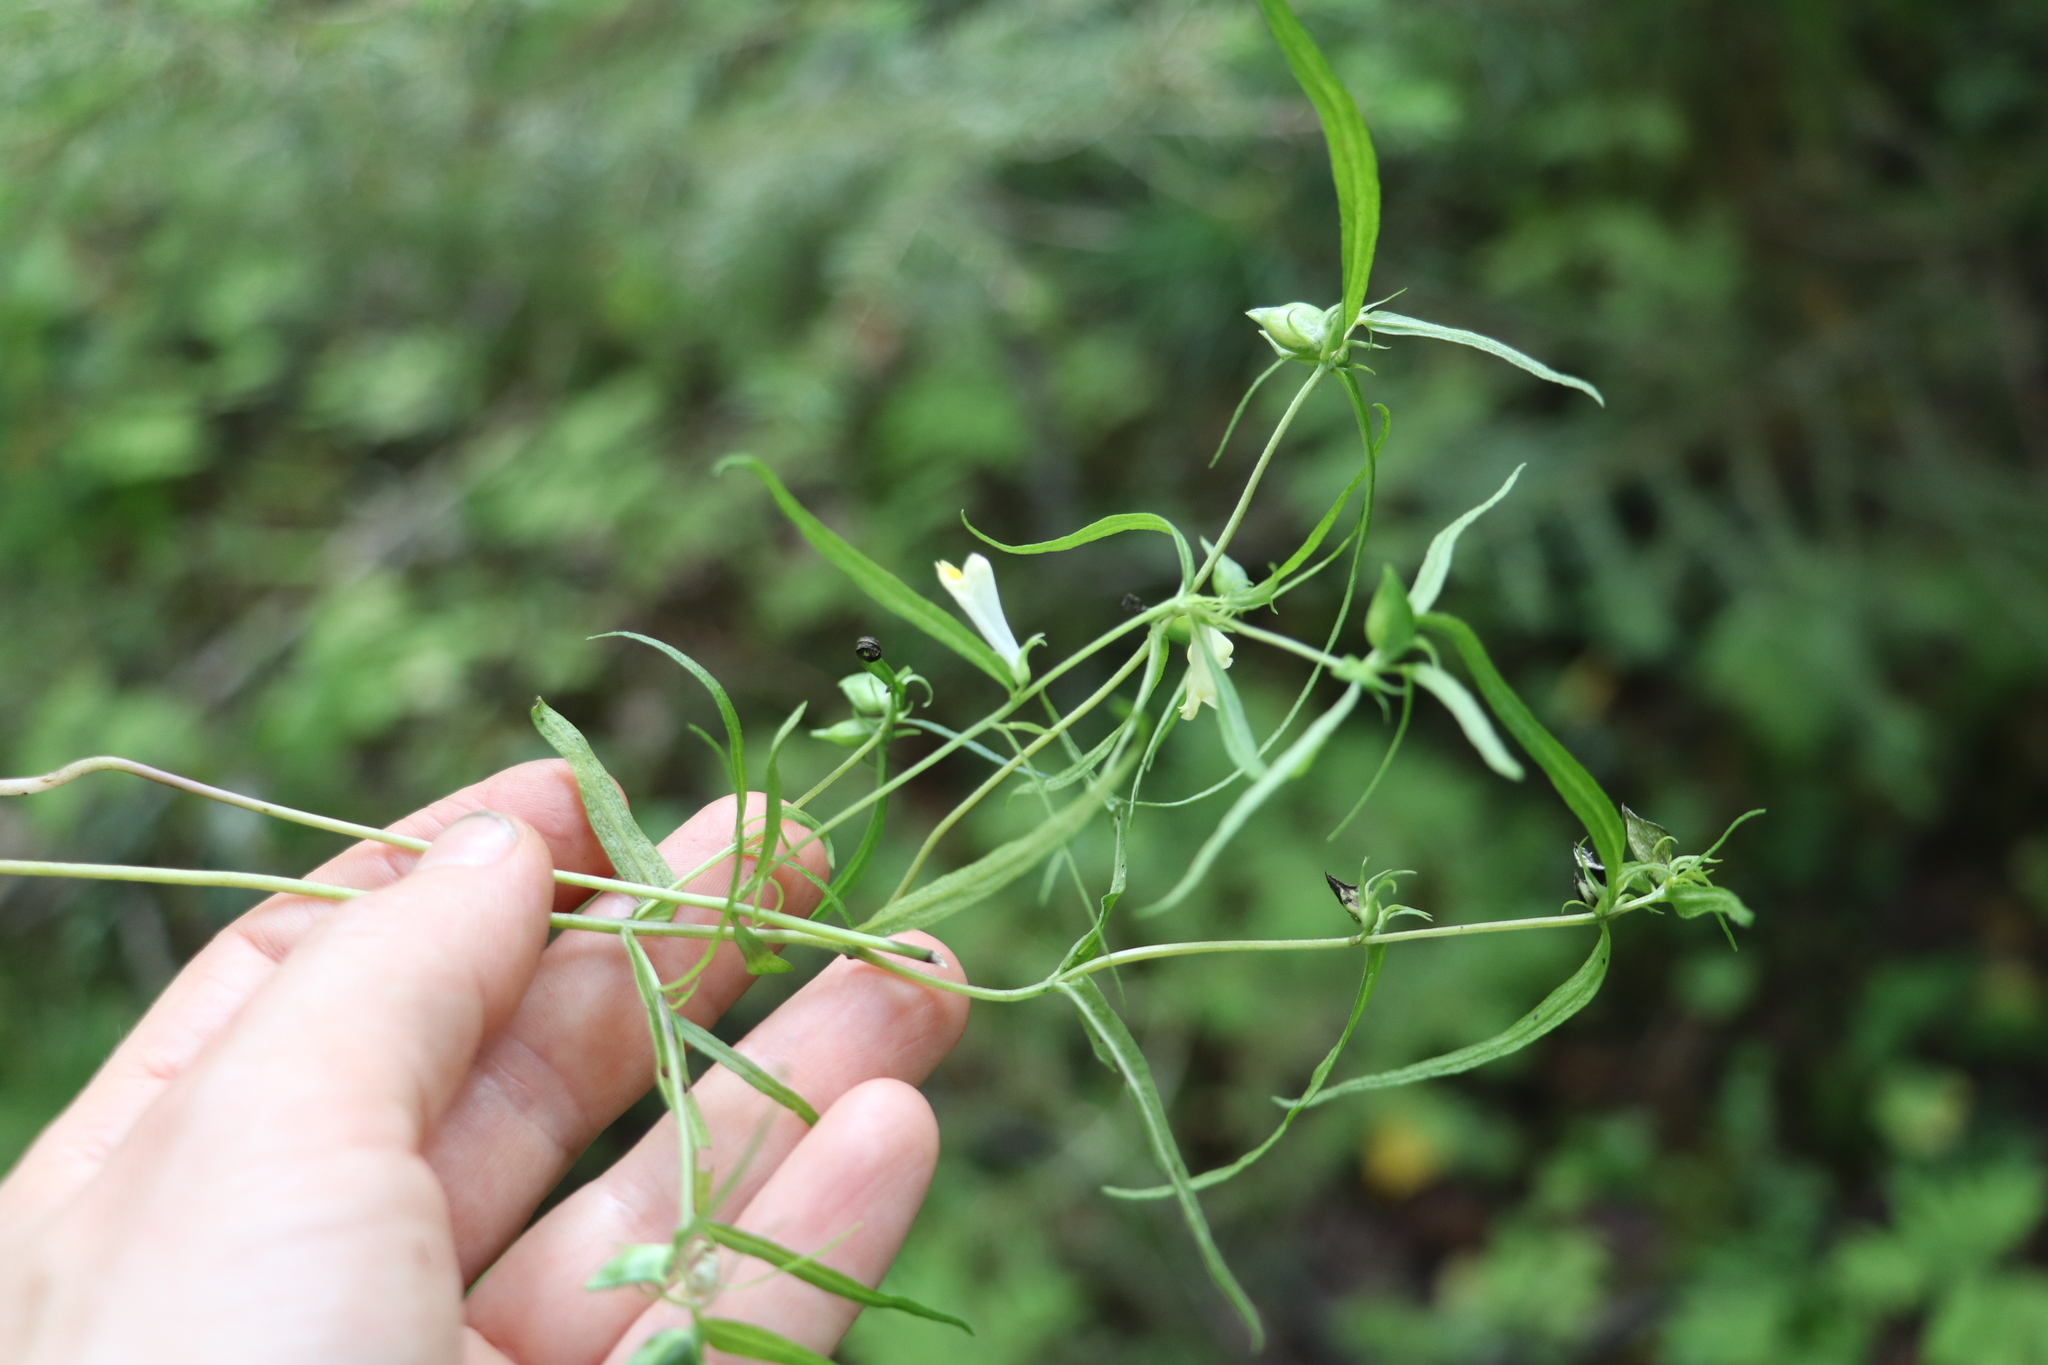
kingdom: Plantae
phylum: Tracheophyta
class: Magnoliopsida
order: Lamiales
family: Orobanchaceae
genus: Melampyrum
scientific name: Melampyrum pratense
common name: Common cow-wheat
